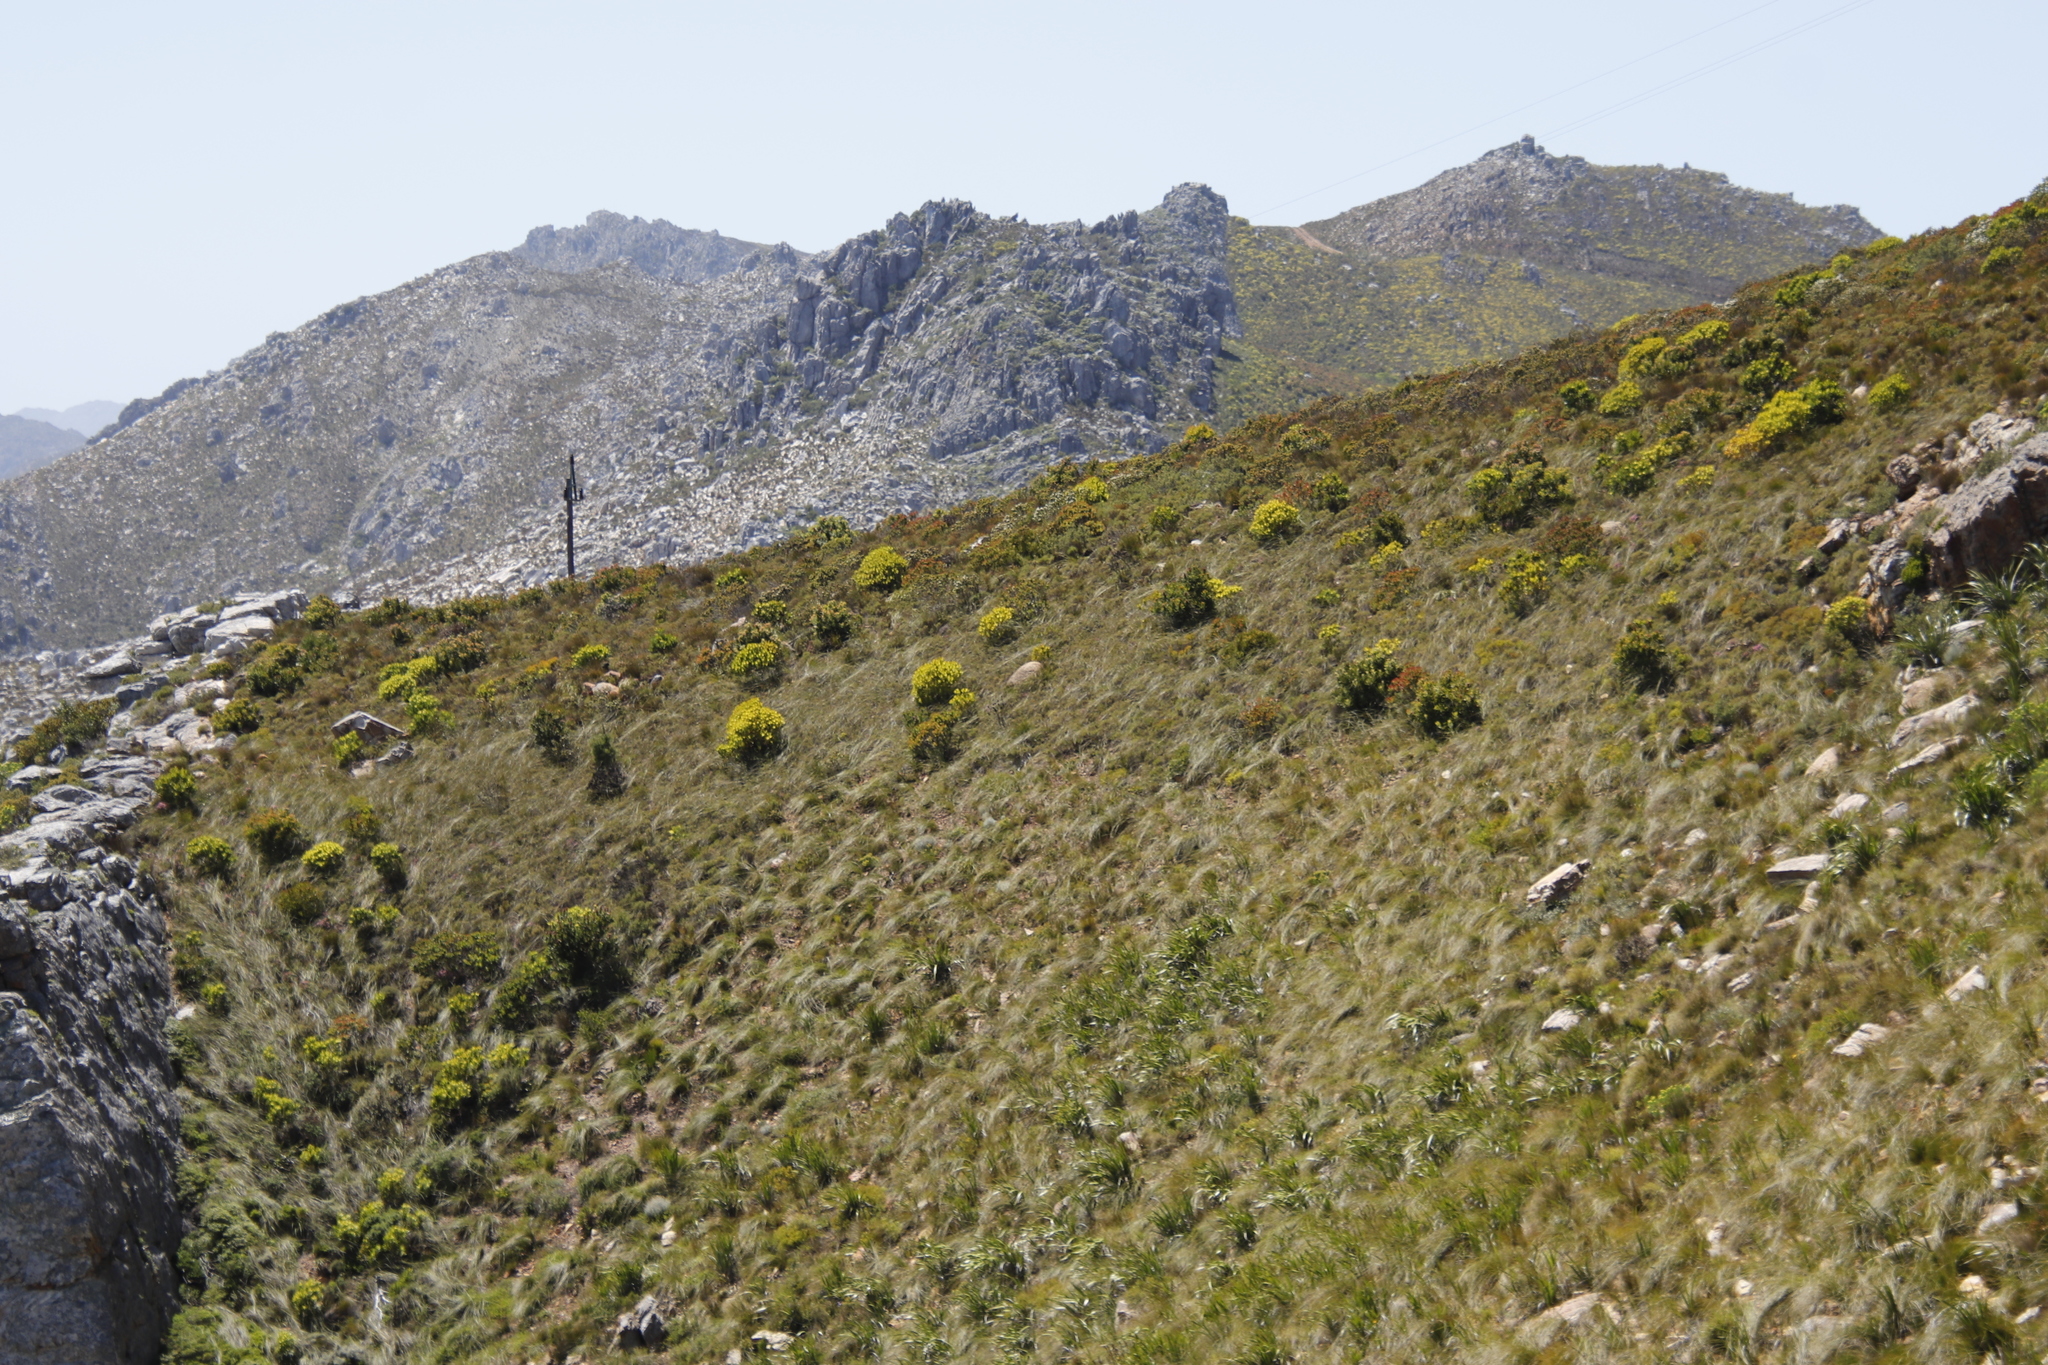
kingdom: Plantae
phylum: Tracheophyta
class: Magnoliopsida
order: Proteales
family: Proteaceae
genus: Leucadendron
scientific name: Leucadendron laureolum
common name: Golden sunshinebush
